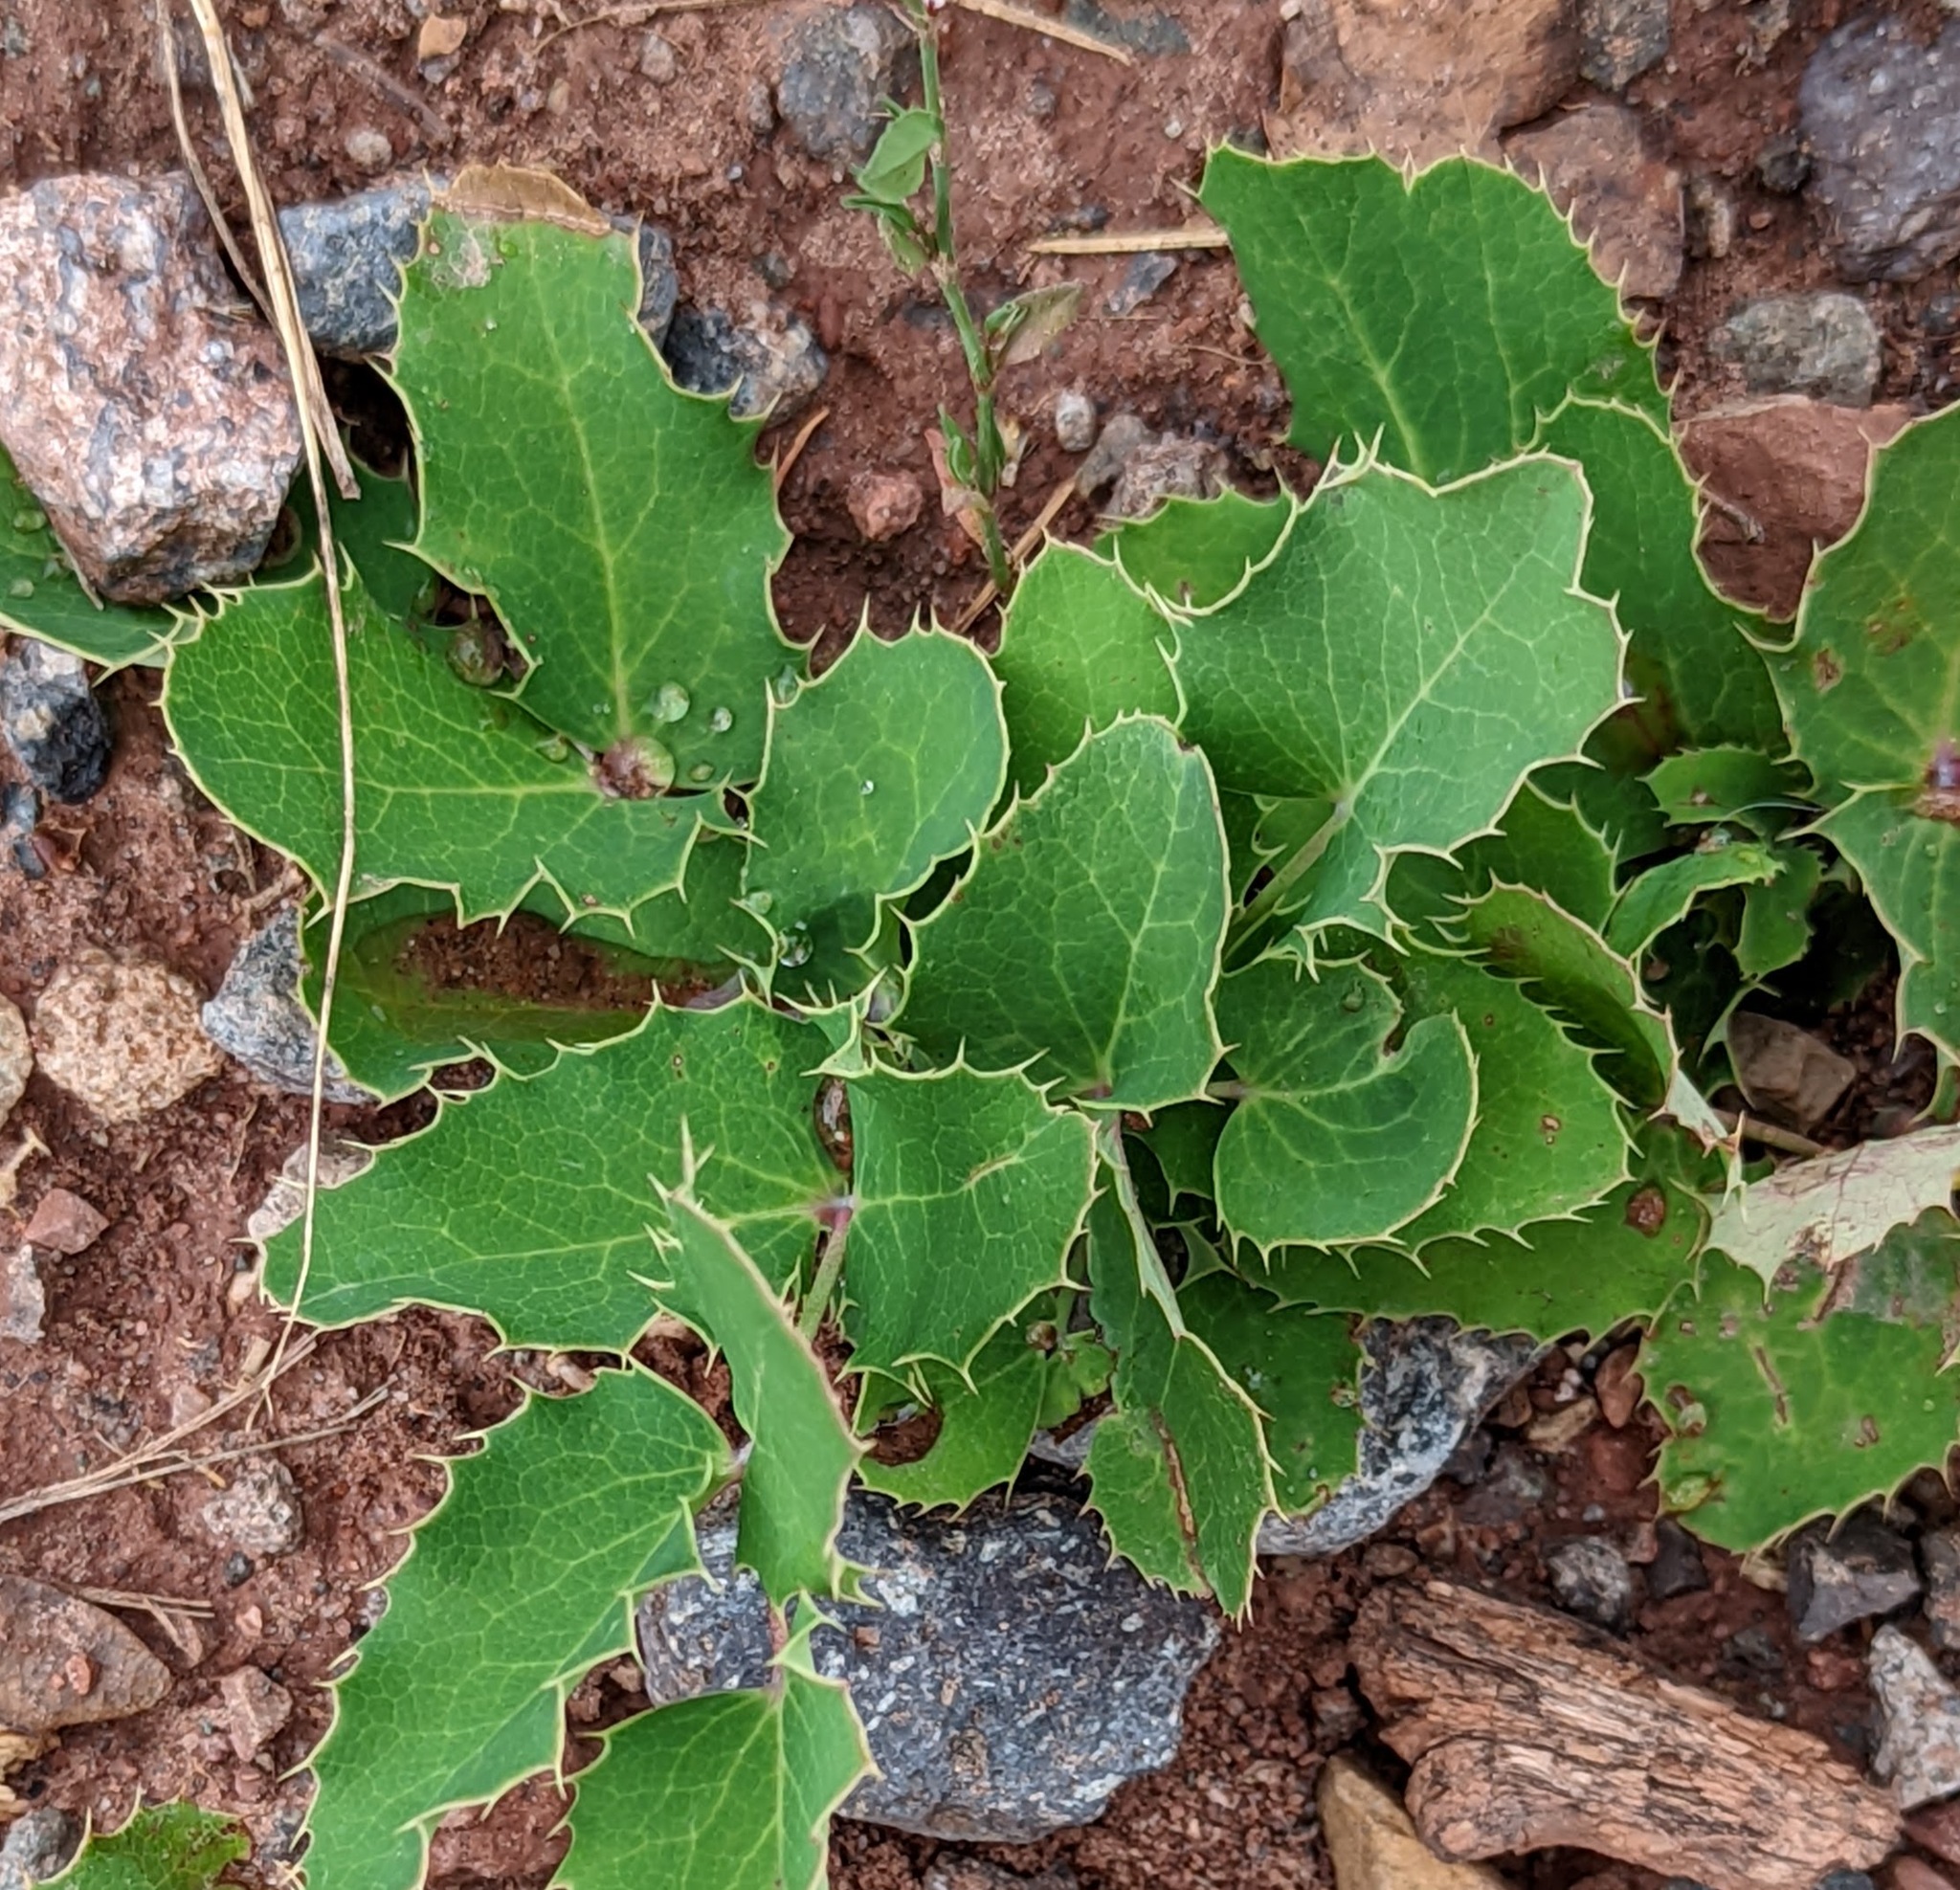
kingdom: Plantae
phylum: Tracheophyta
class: Magnoliopsida
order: Ranunculales
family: Berberidaceae
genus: Mahonia
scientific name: Mahonia repens
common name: Creeping oregon-grape
